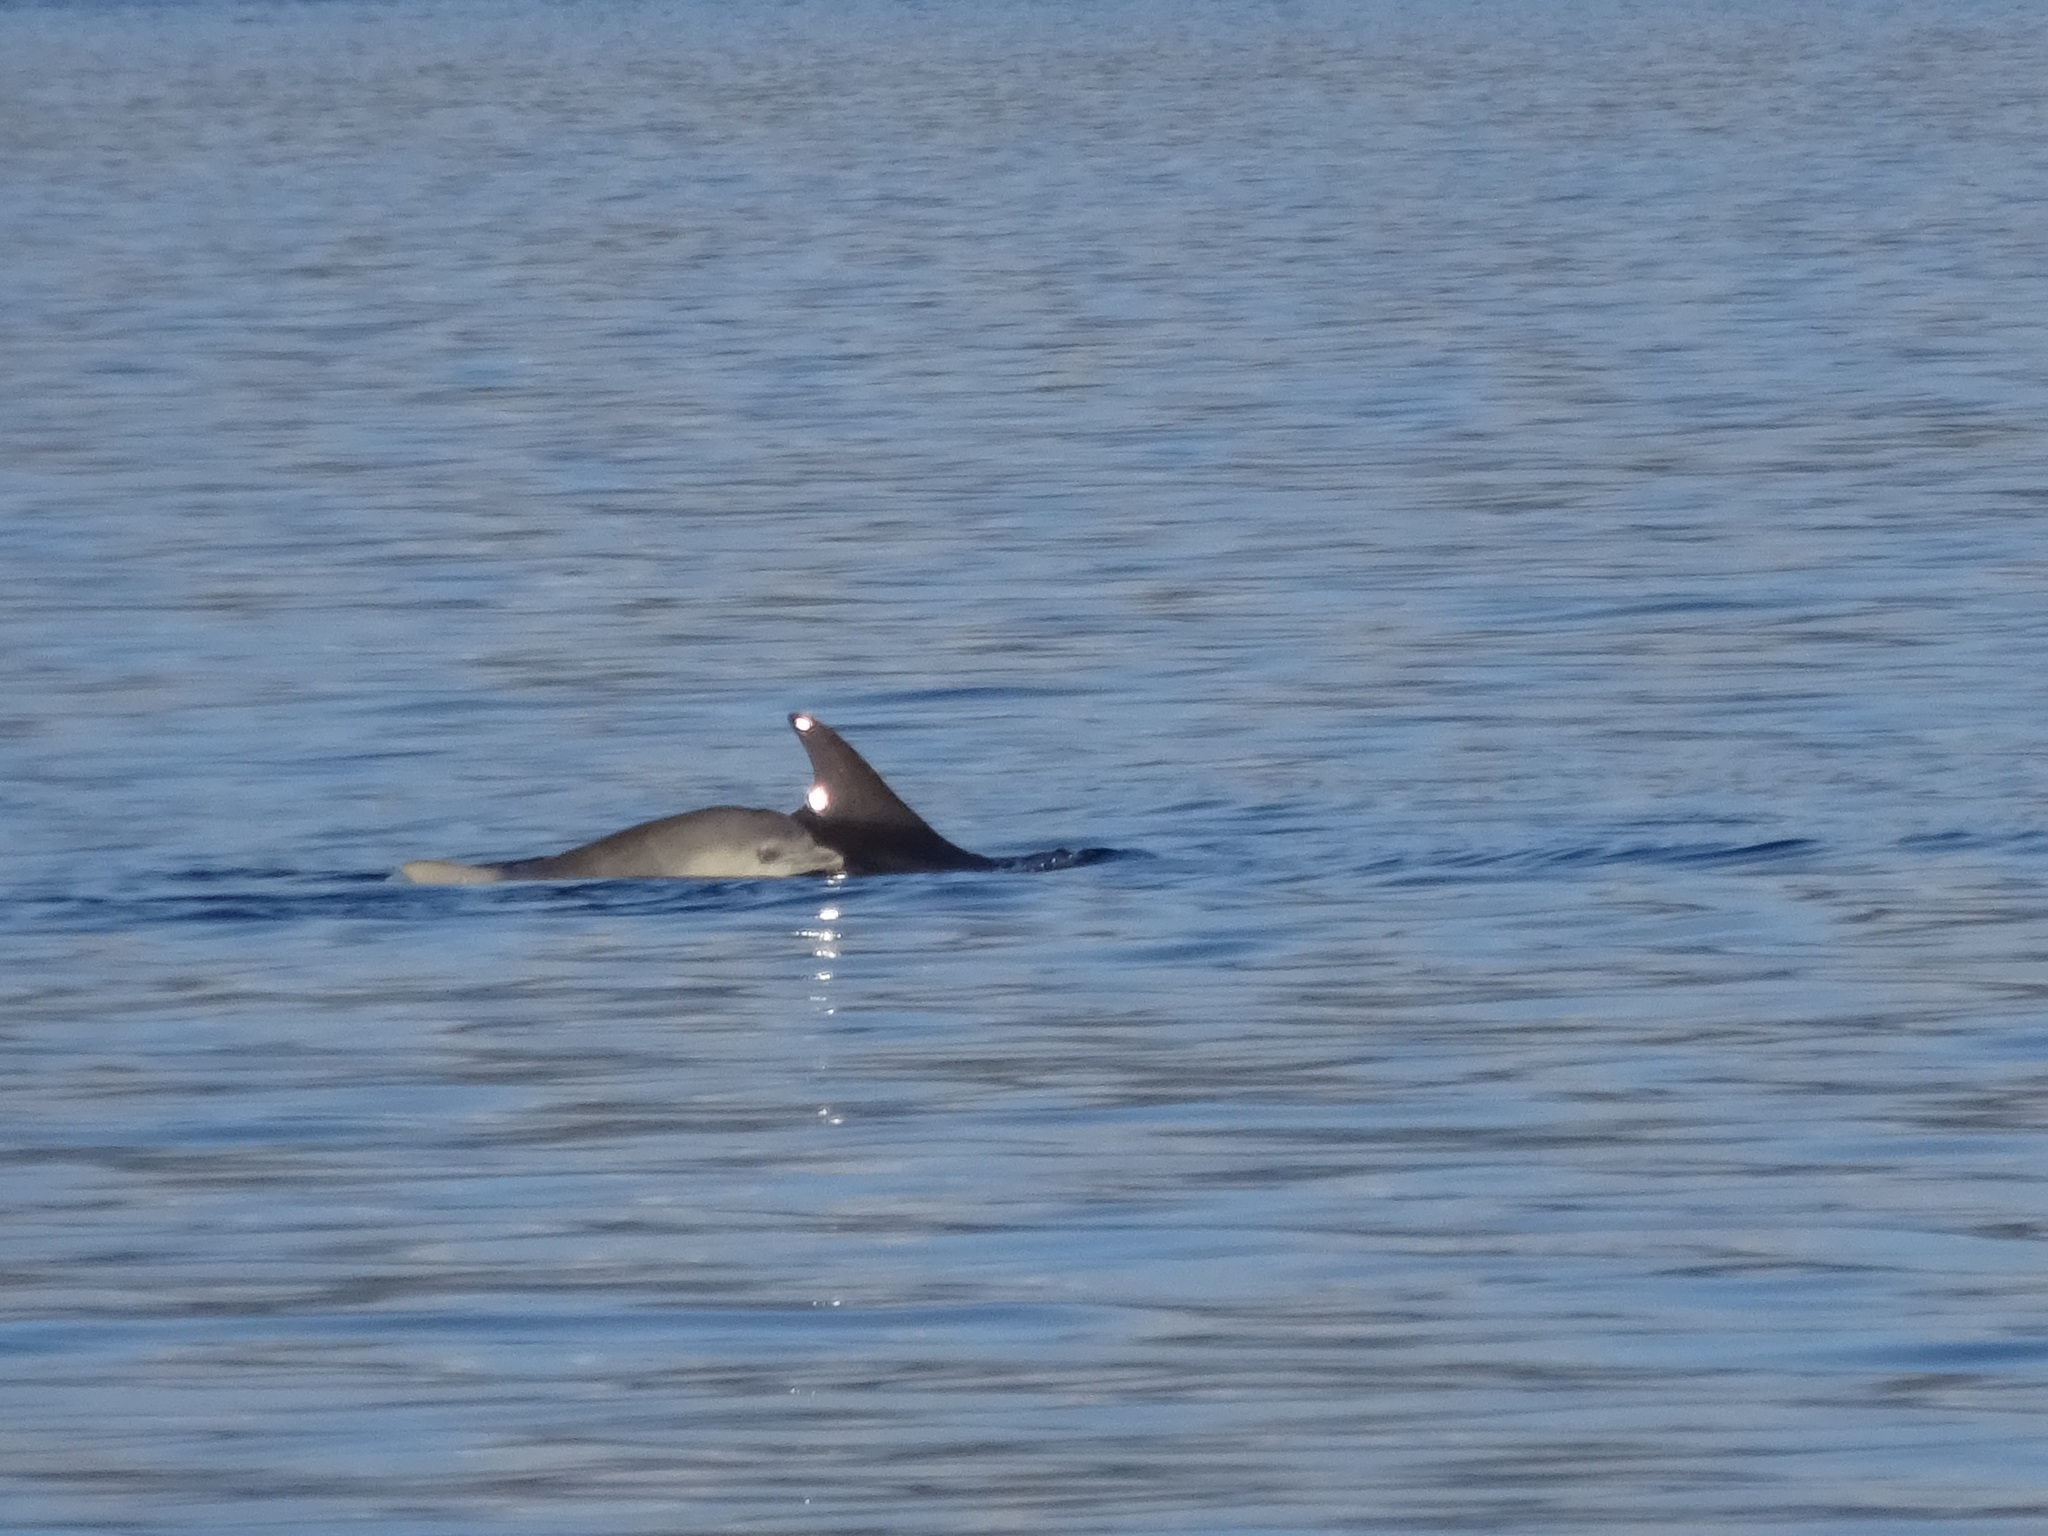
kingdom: Animalia
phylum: Chordata
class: Mammalia
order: Cetacea
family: Delphinidae
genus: Tursiops
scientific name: Tursiops truncatus
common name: Bottlenose dolphin
